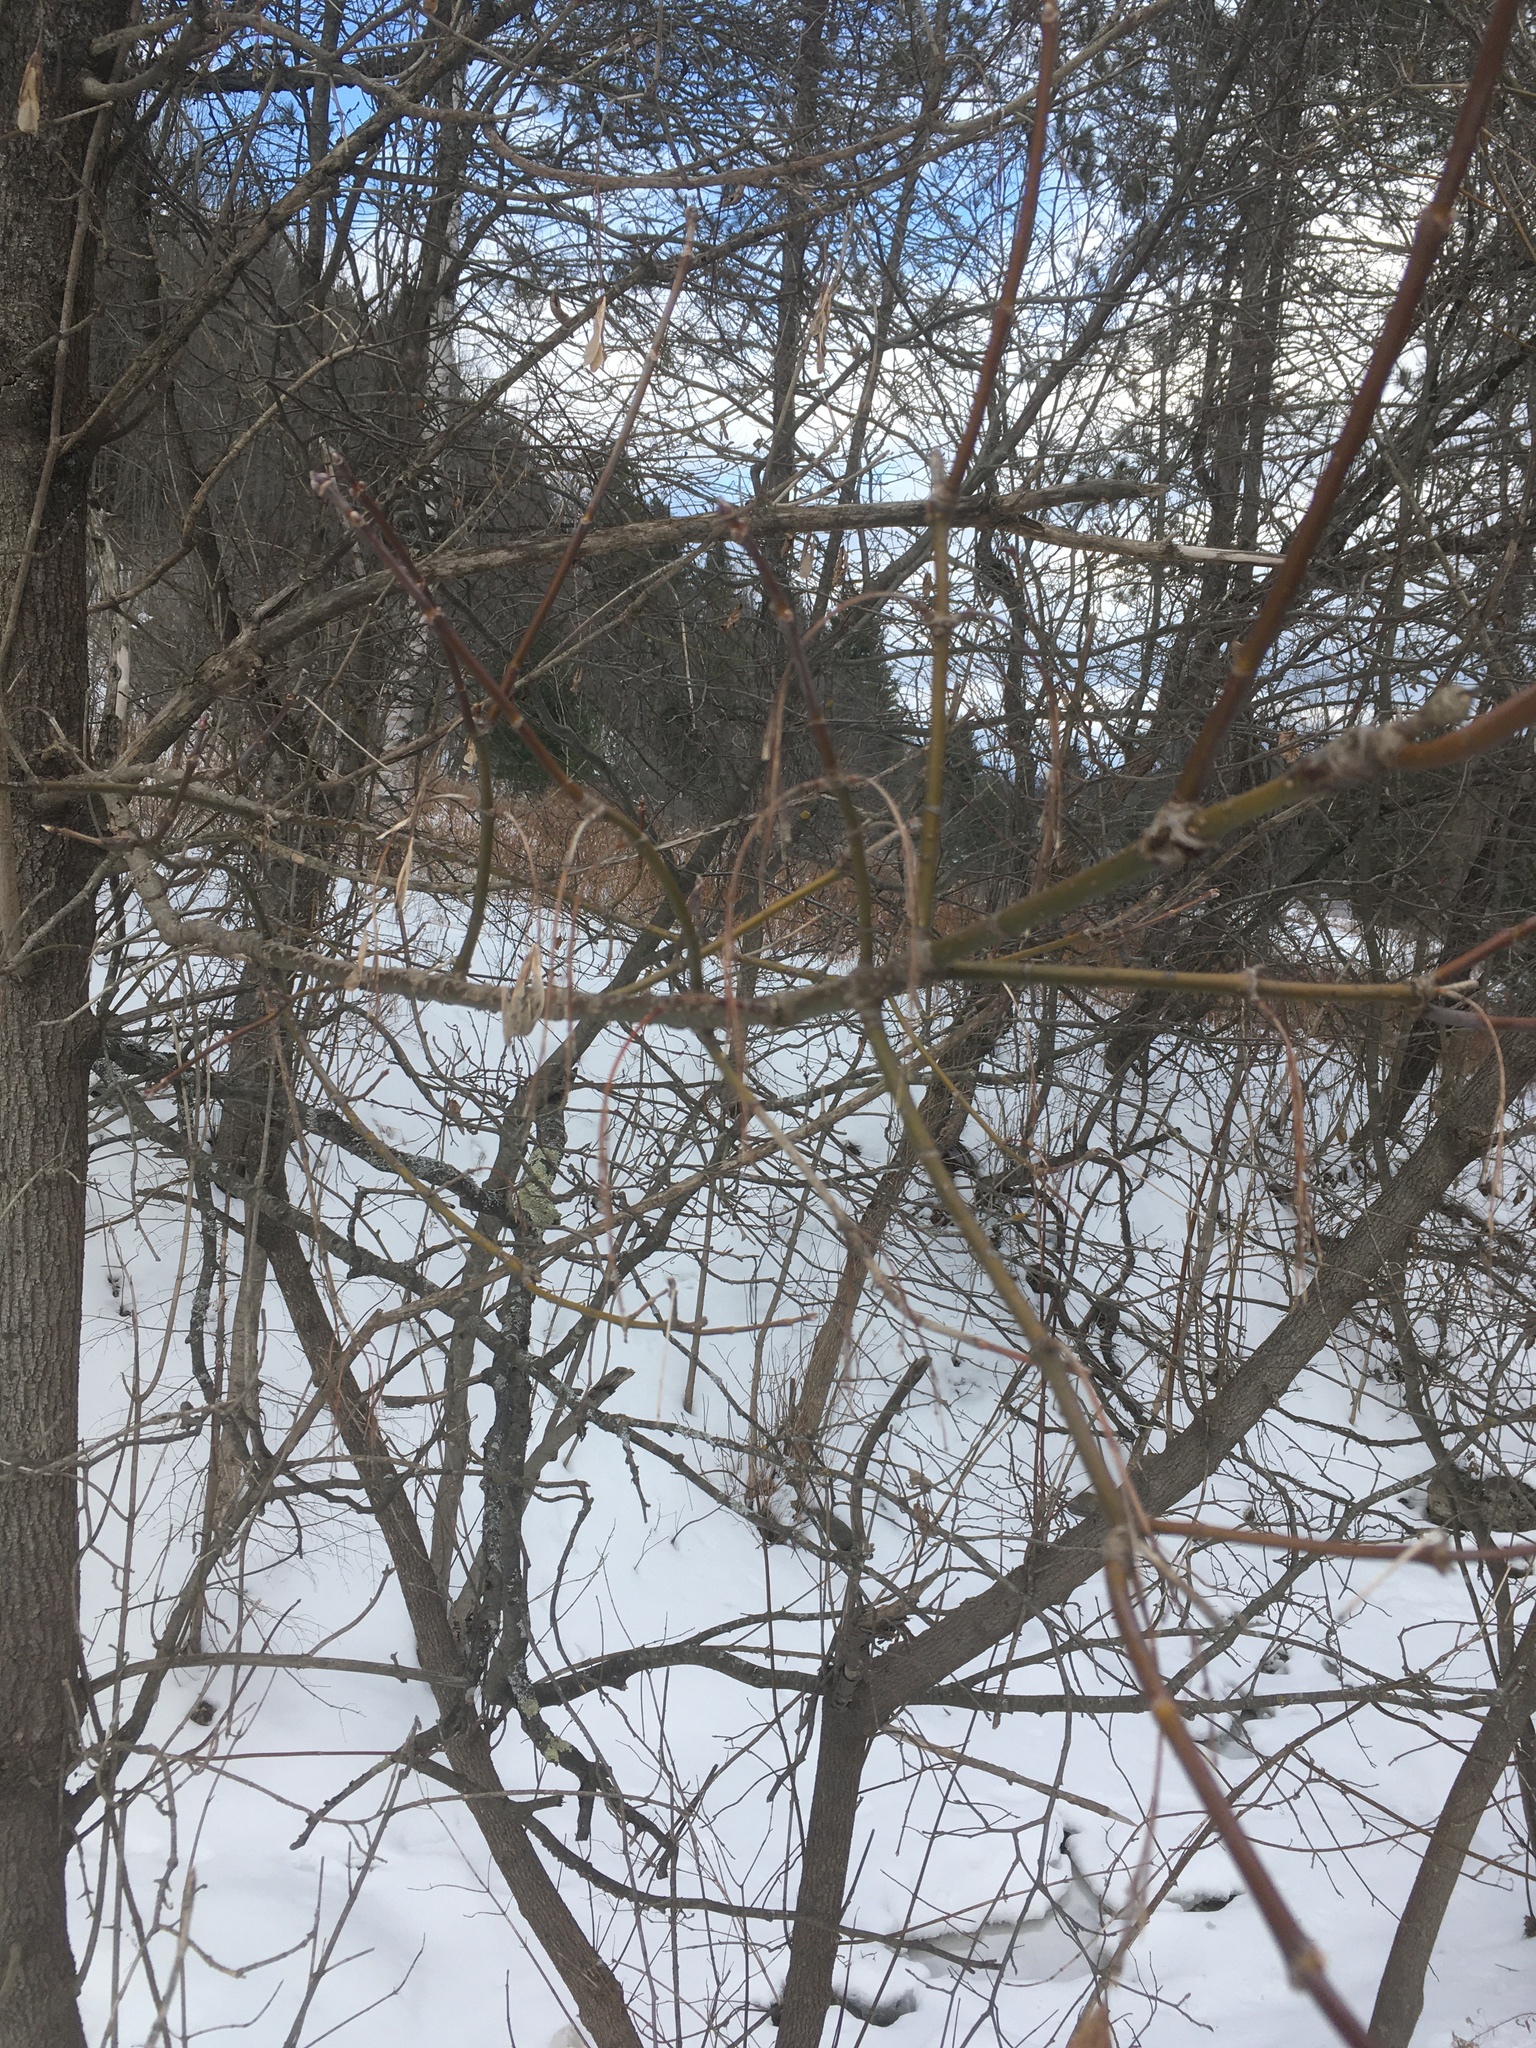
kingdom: Plantae
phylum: Tracheophyta
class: Magnoliopsida
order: Sapindales
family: Sapindaceae
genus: Acer
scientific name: Acer negundo
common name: Ashleaf maple
